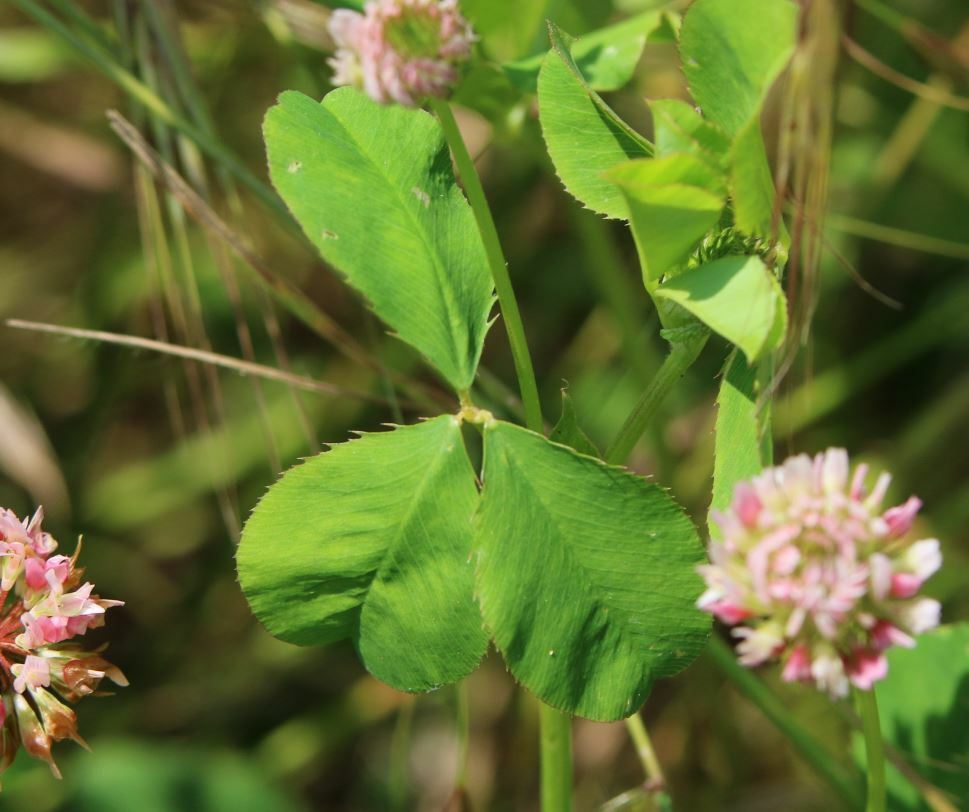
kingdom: Plantae
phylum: Tracheophyta
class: Magnoliopsida
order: Fabales
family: Fabaceae
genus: Trifolium
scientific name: Trifolium hybridum
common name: Alsike clover
